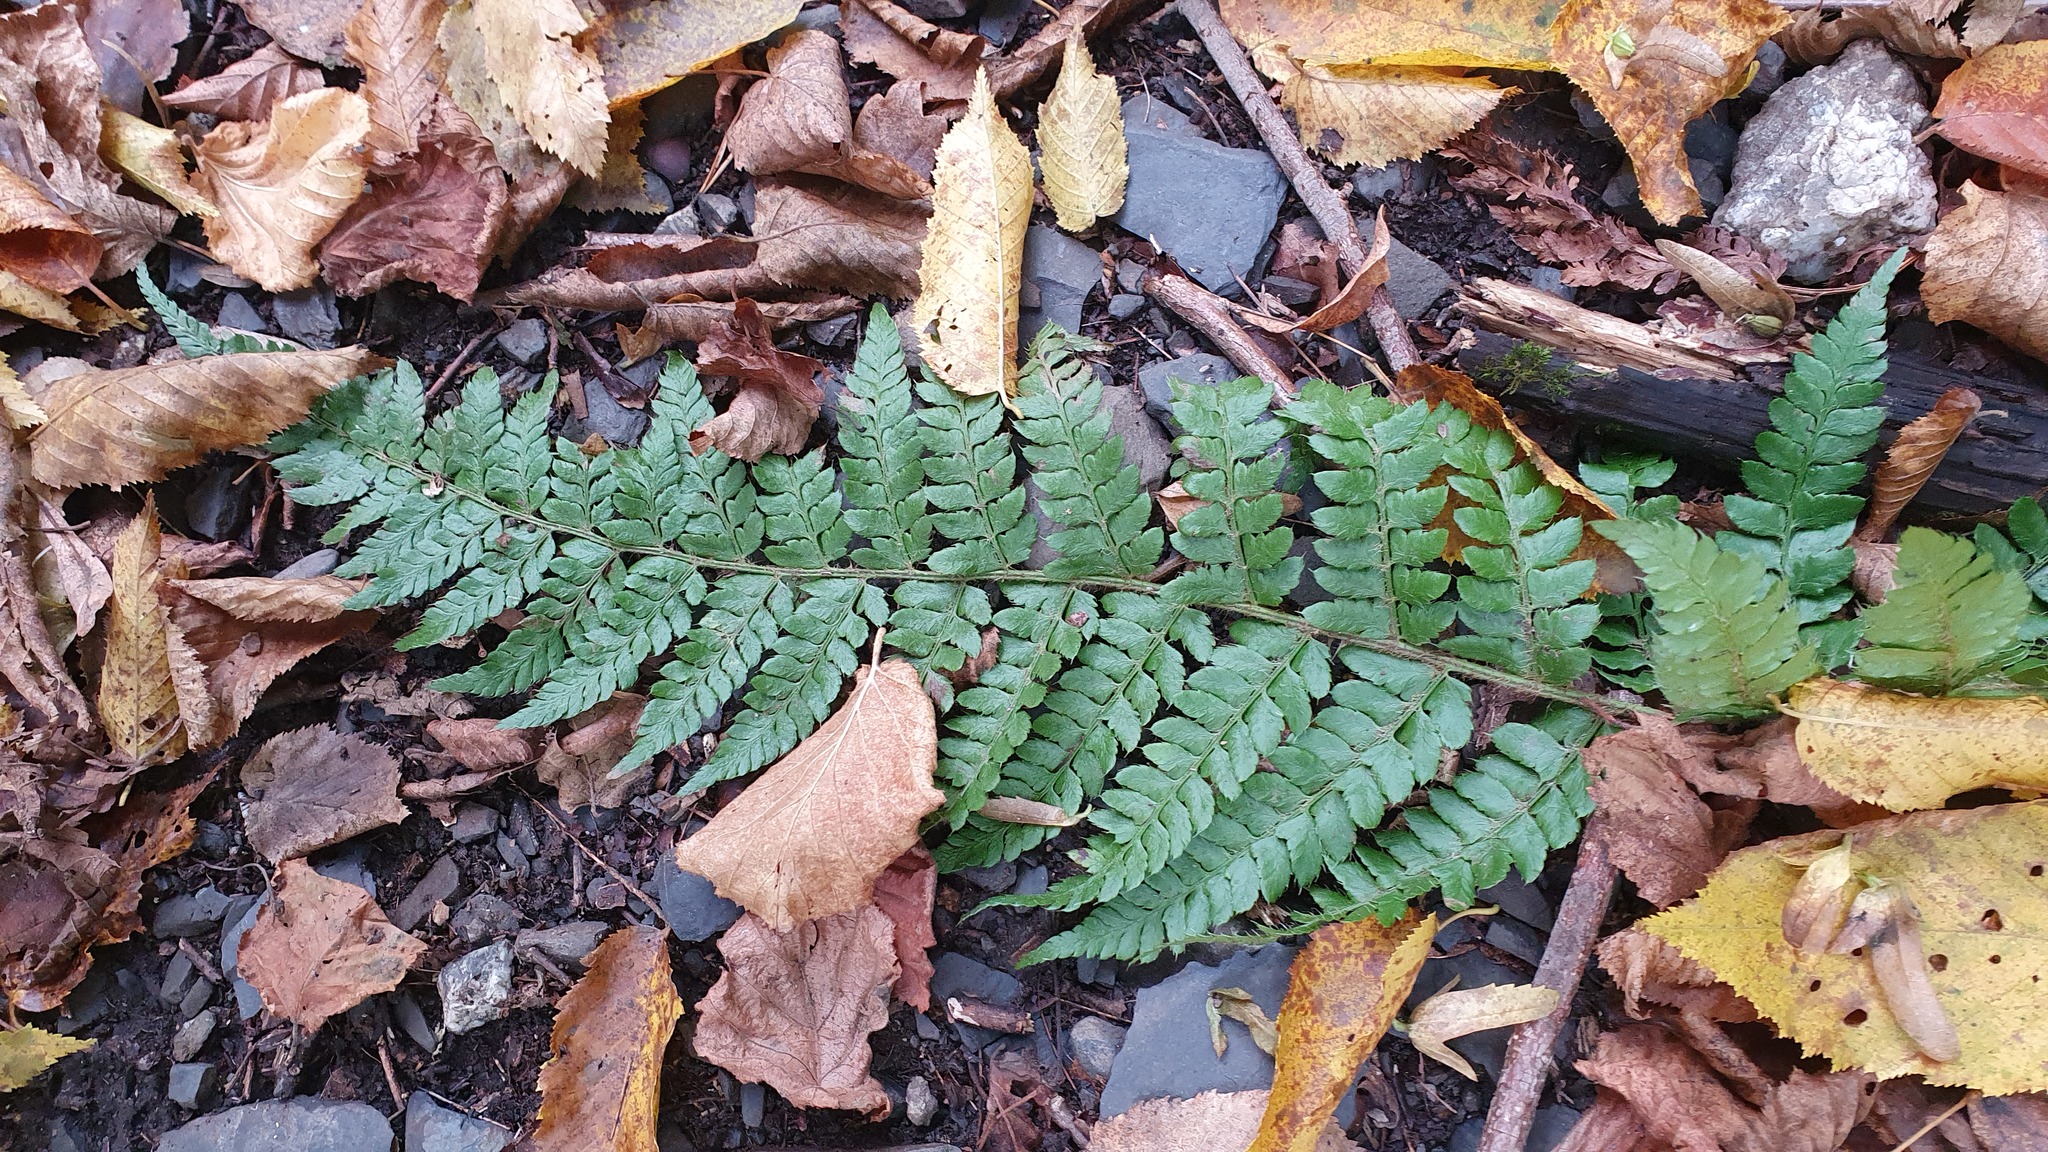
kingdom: Plantae
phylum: Tracheophyta
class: Polypodiopsida
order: Polypodiales
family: Dryopteridaceae
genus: Polystichum
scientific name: Polystichum braunii
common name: Braun's holly fern
